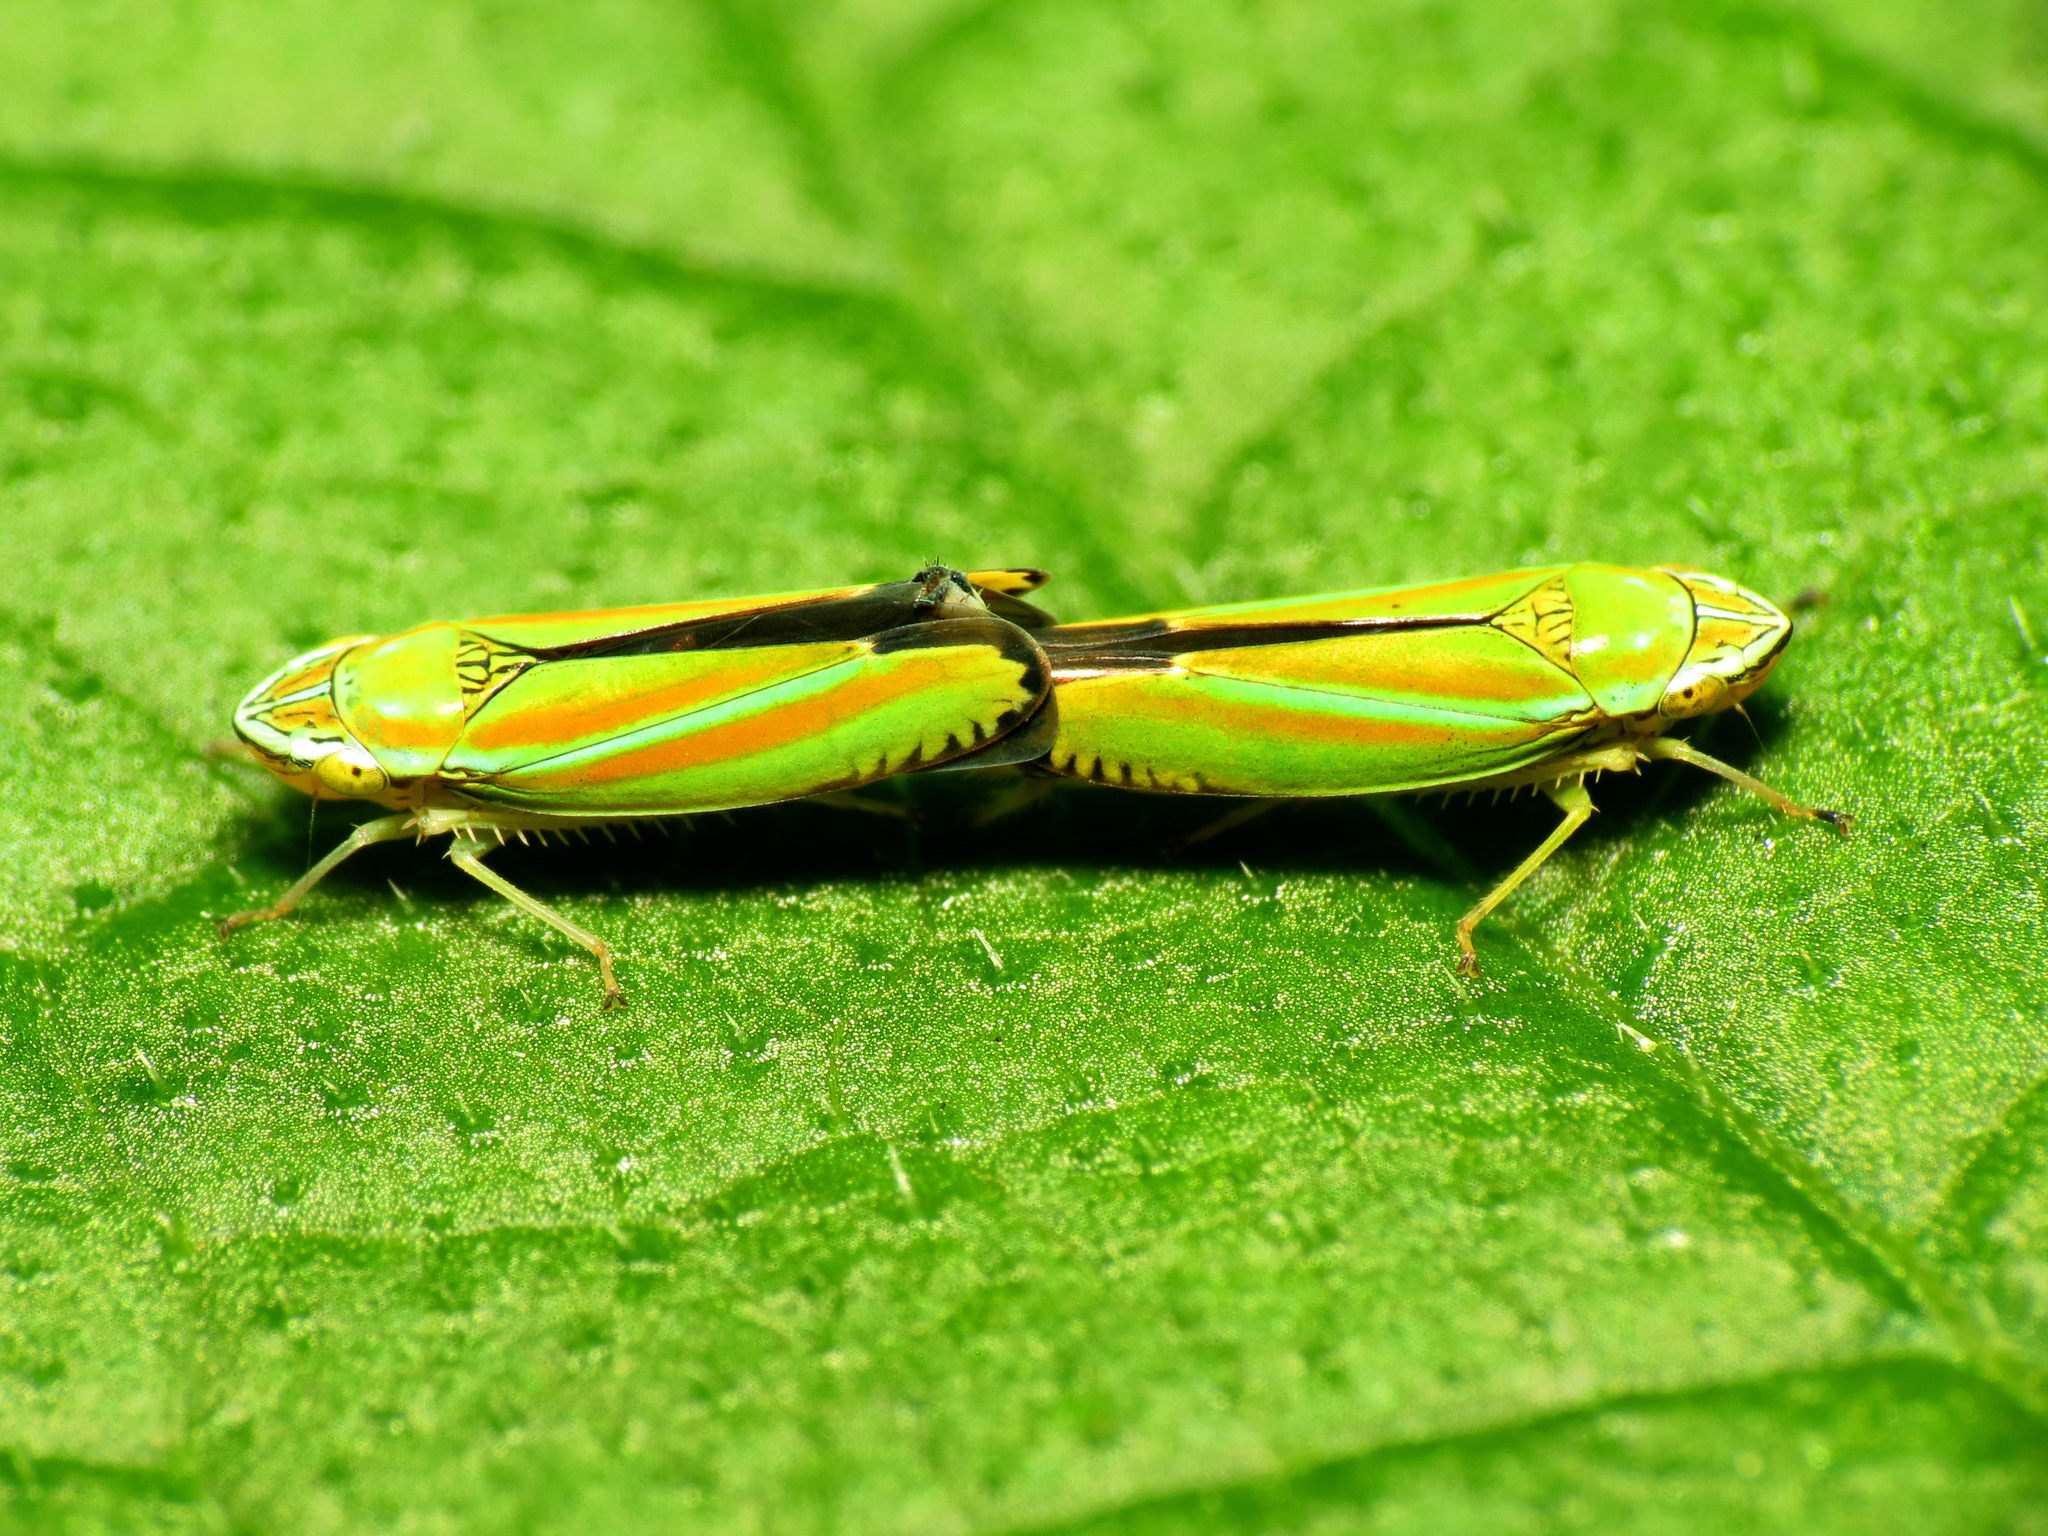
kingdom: Animalia
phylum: Arthropoda
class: Insecta
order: Hemiptera
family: Cicadellidae
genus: Graphocephala
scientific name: Graphocephala versuta
